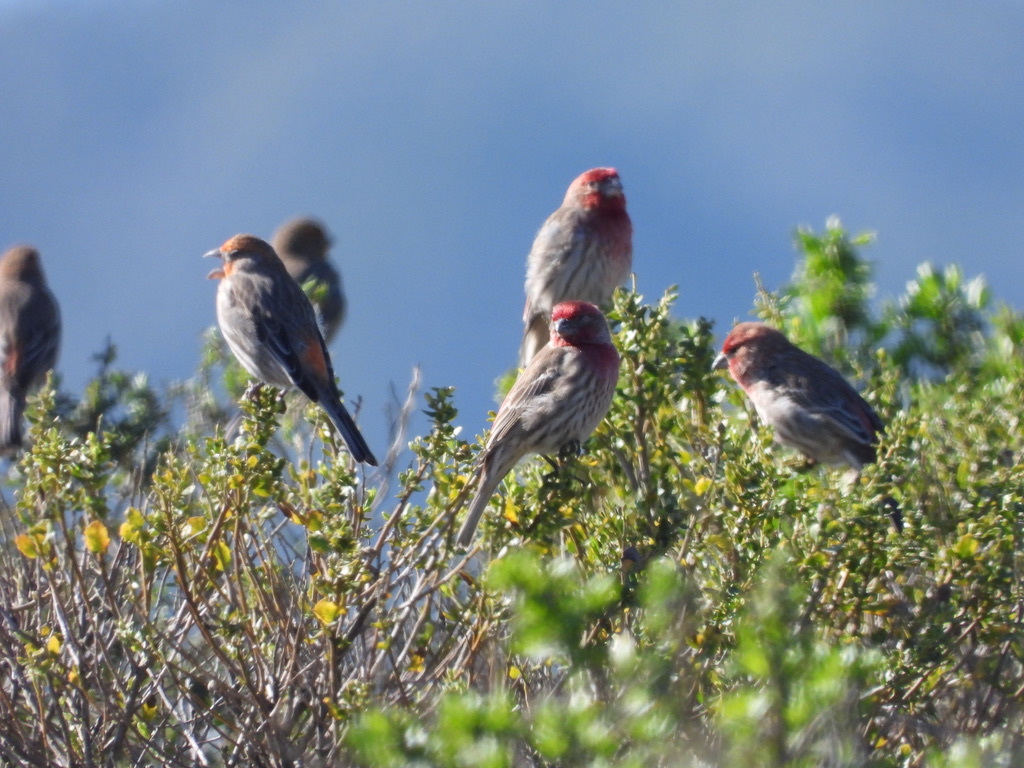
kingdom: Animalia
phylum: Chordata
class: Aves
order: Passeriformes
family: Fringillidae
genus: Haemorhous
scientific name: Haemorhous mexicanus
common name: House finch
